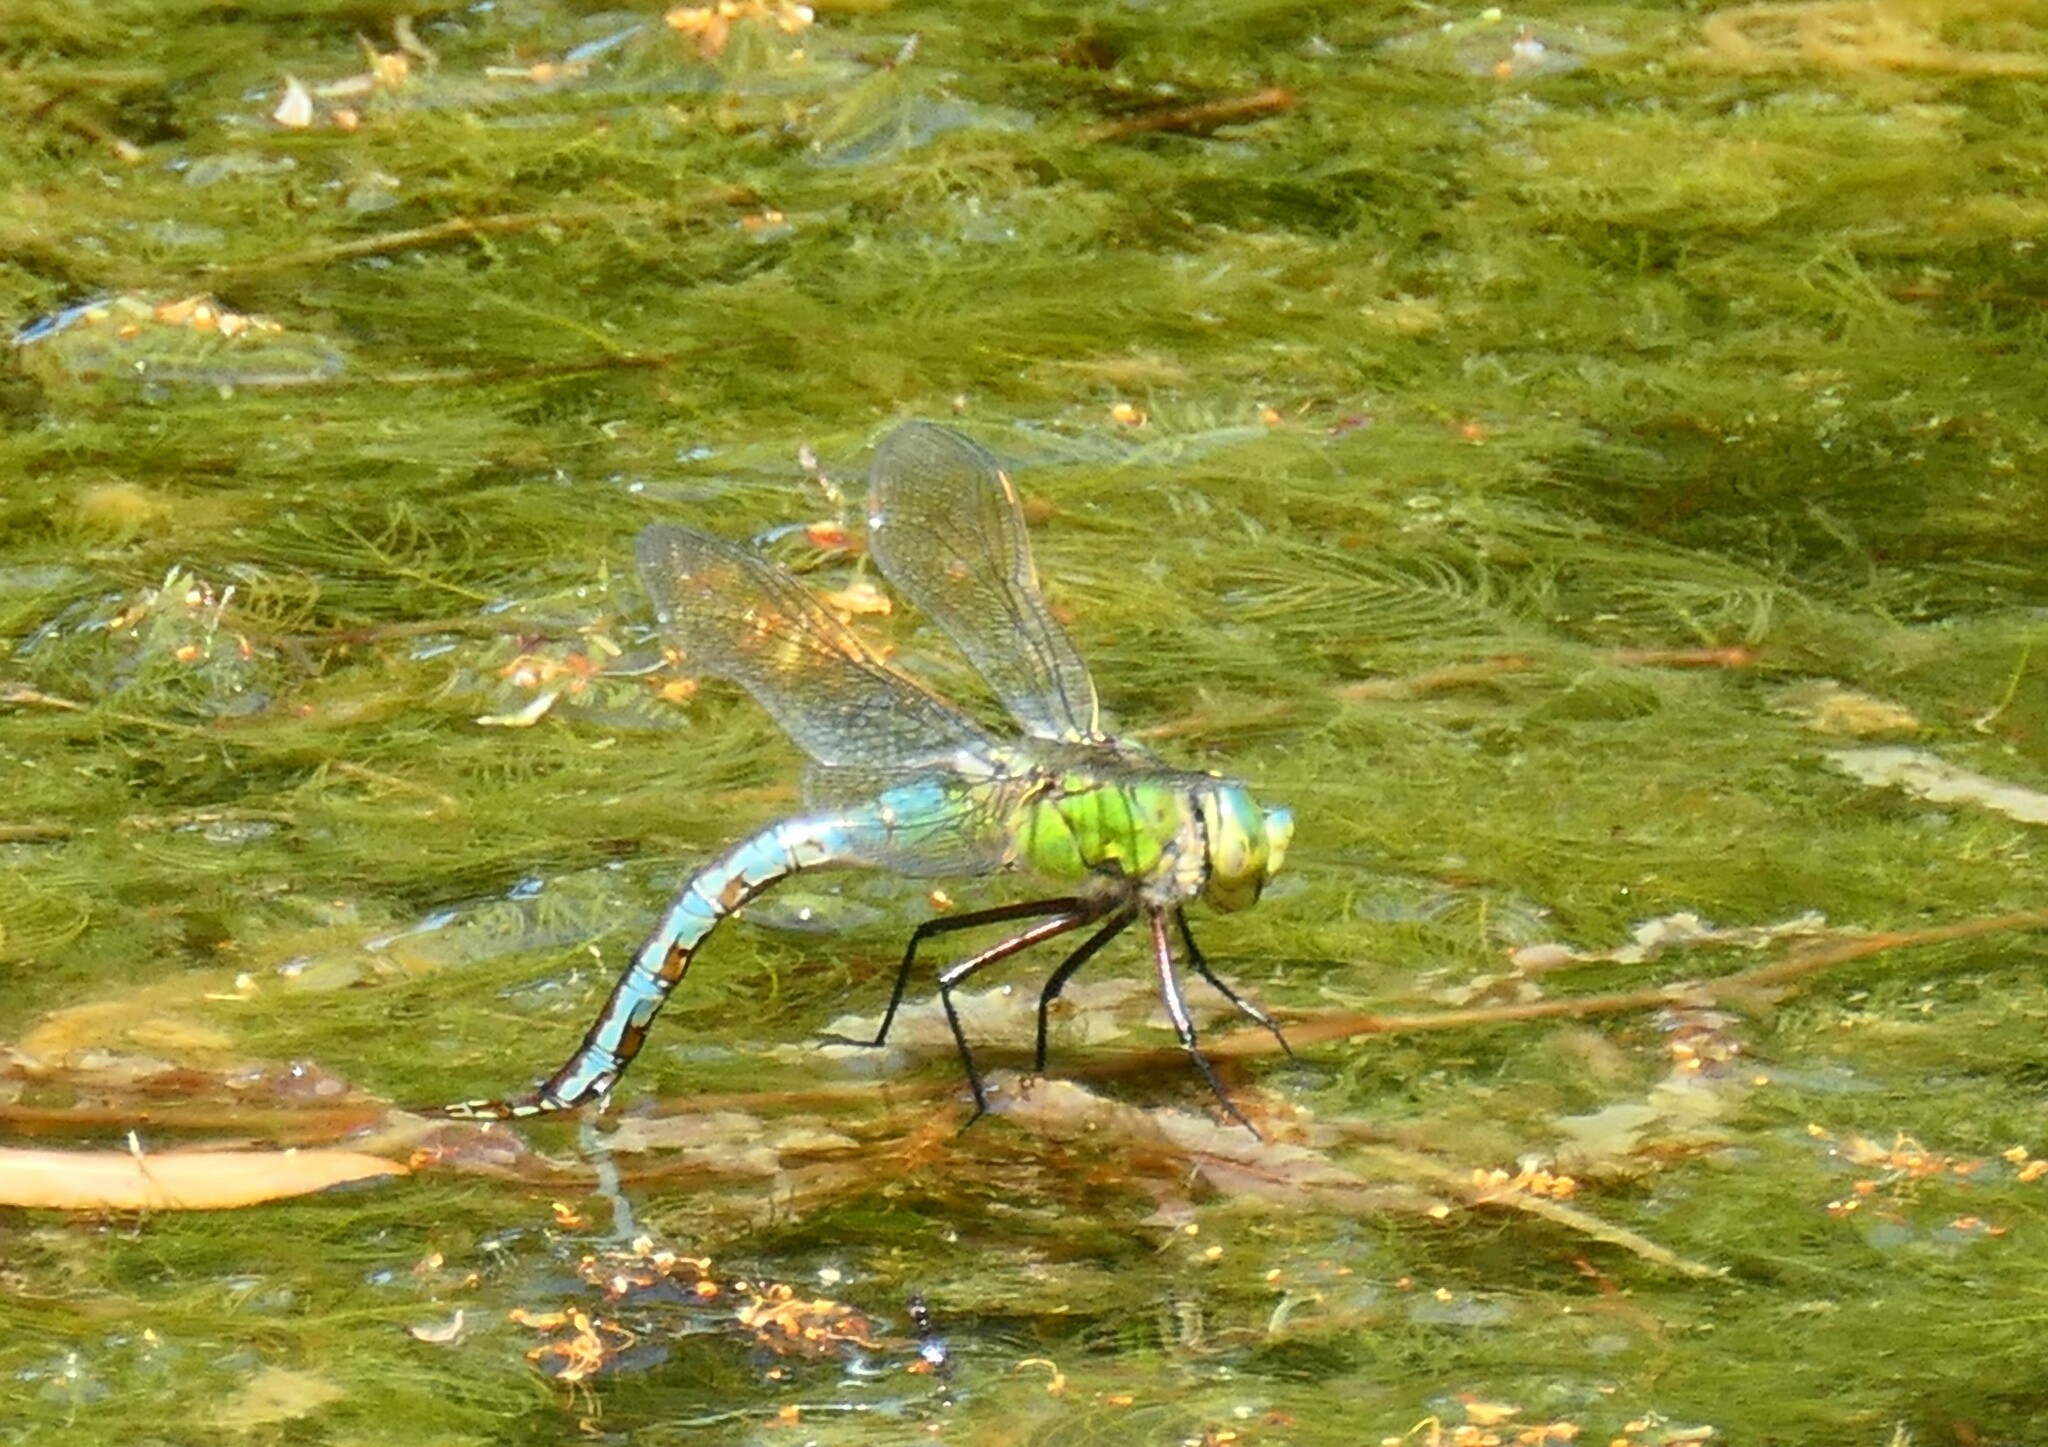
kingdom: Animalia
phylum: Arthropoda
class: Insecta
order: Odonata
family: Aeshnidae
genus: Anax
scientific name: Anax imperator
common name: Emperor dragonfly
